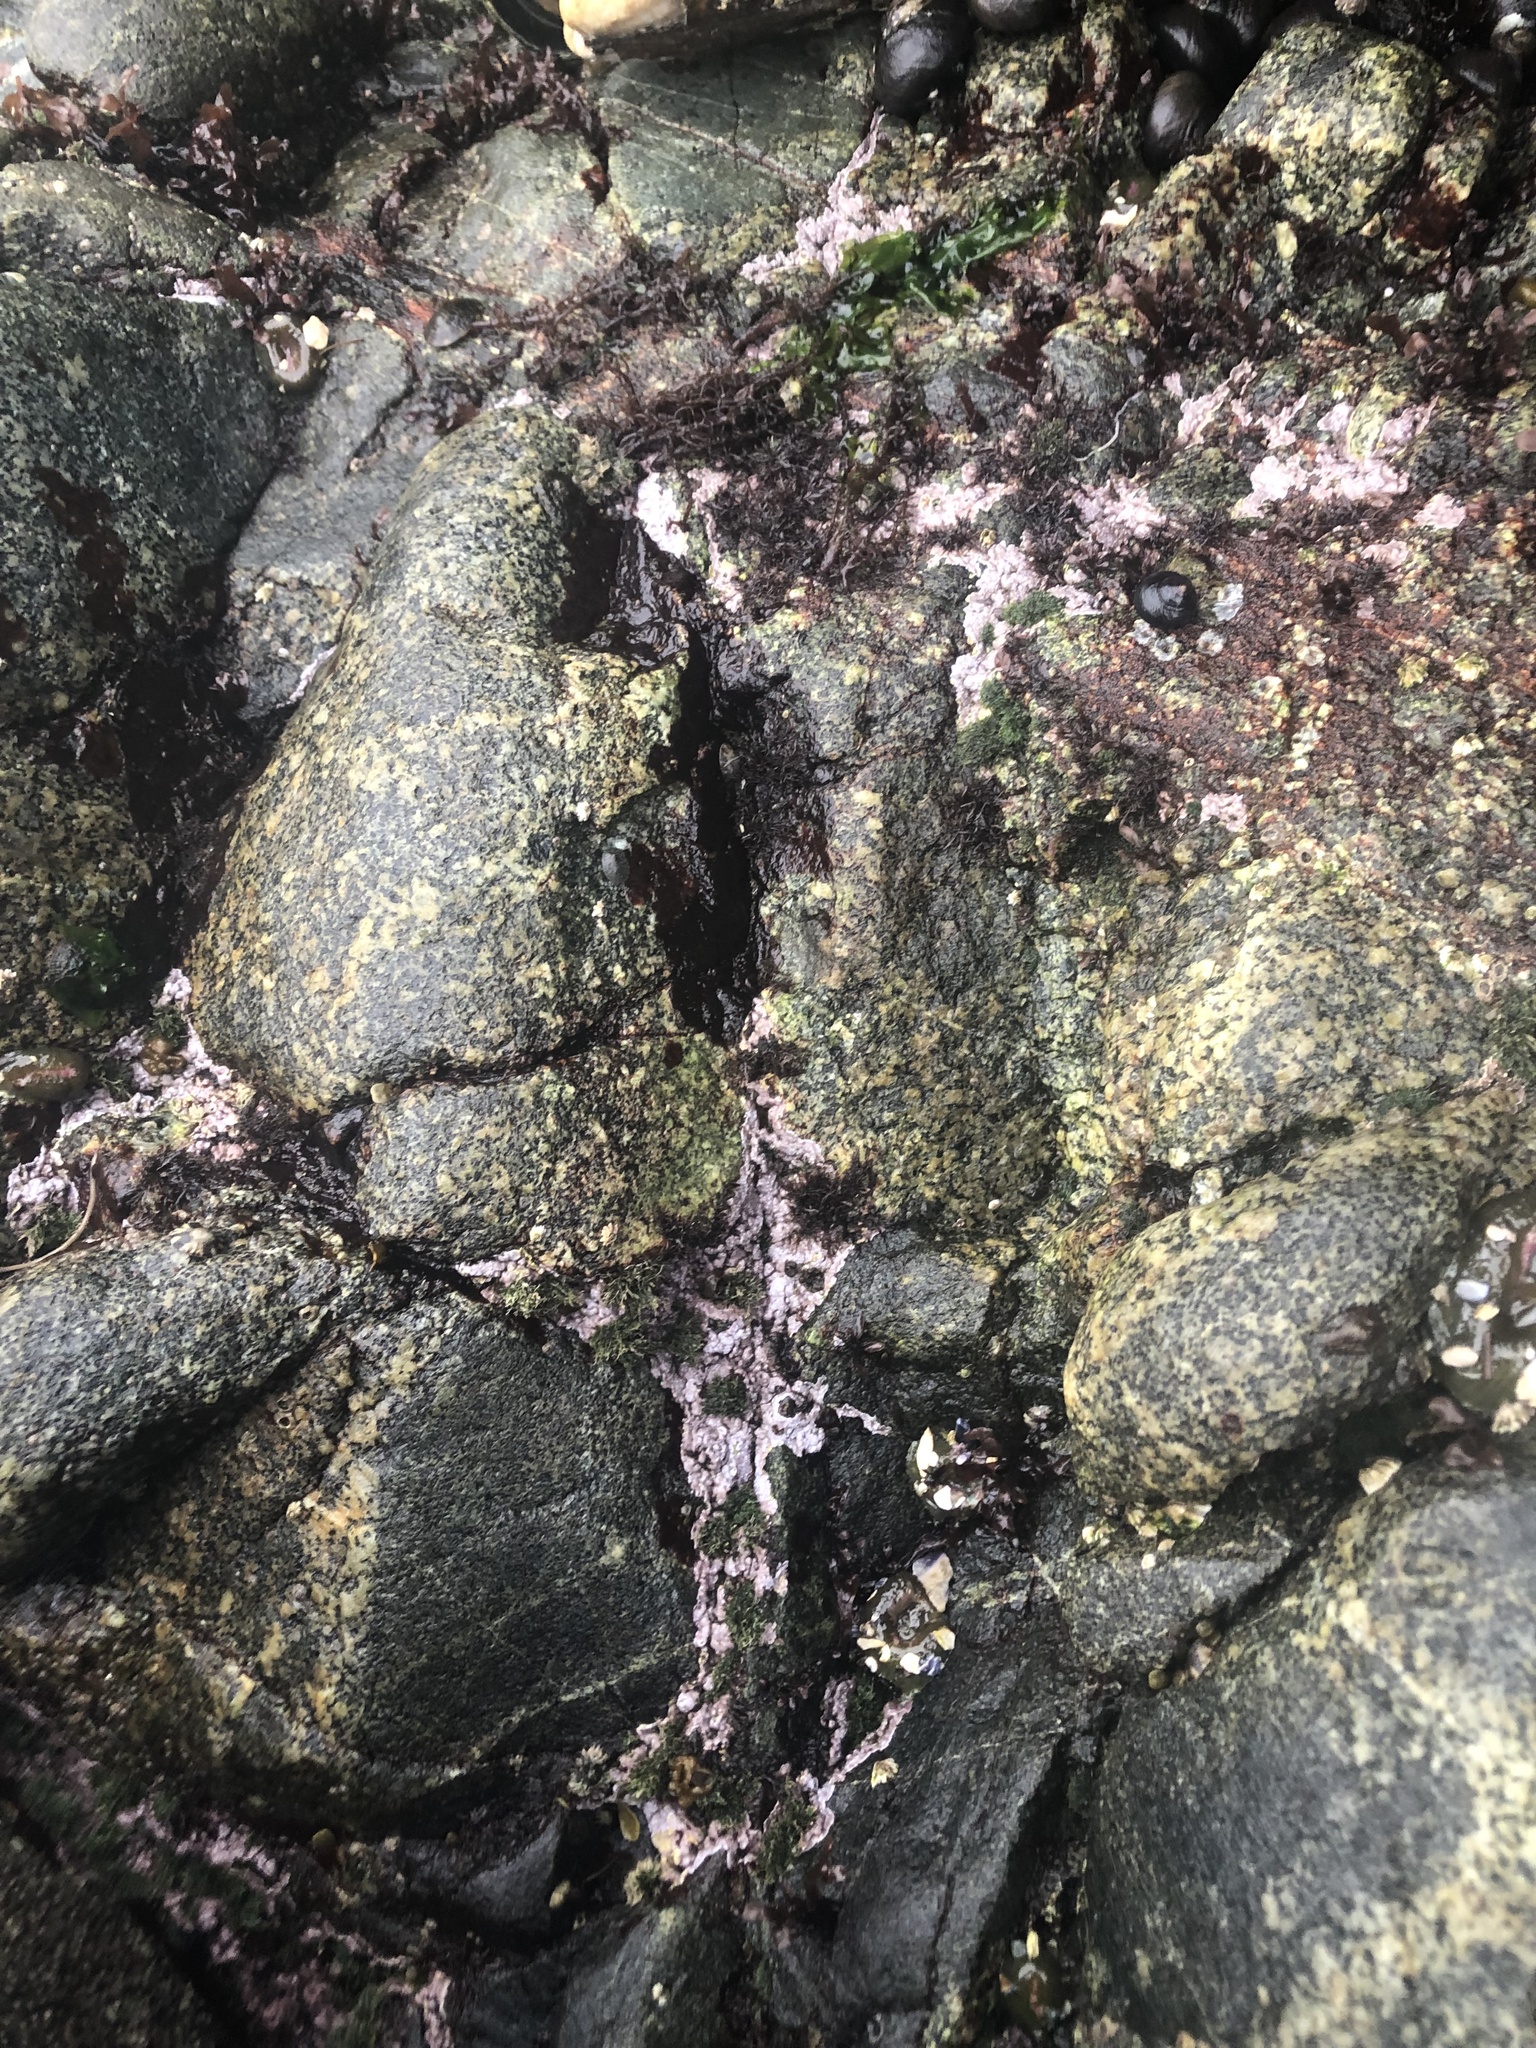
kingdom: Plantae
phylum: Rhodophyta
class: Florideophyceae
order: Corallinales
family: Corallinaceae
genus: Chamberlainium
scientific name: Chamberlainium tumidum
